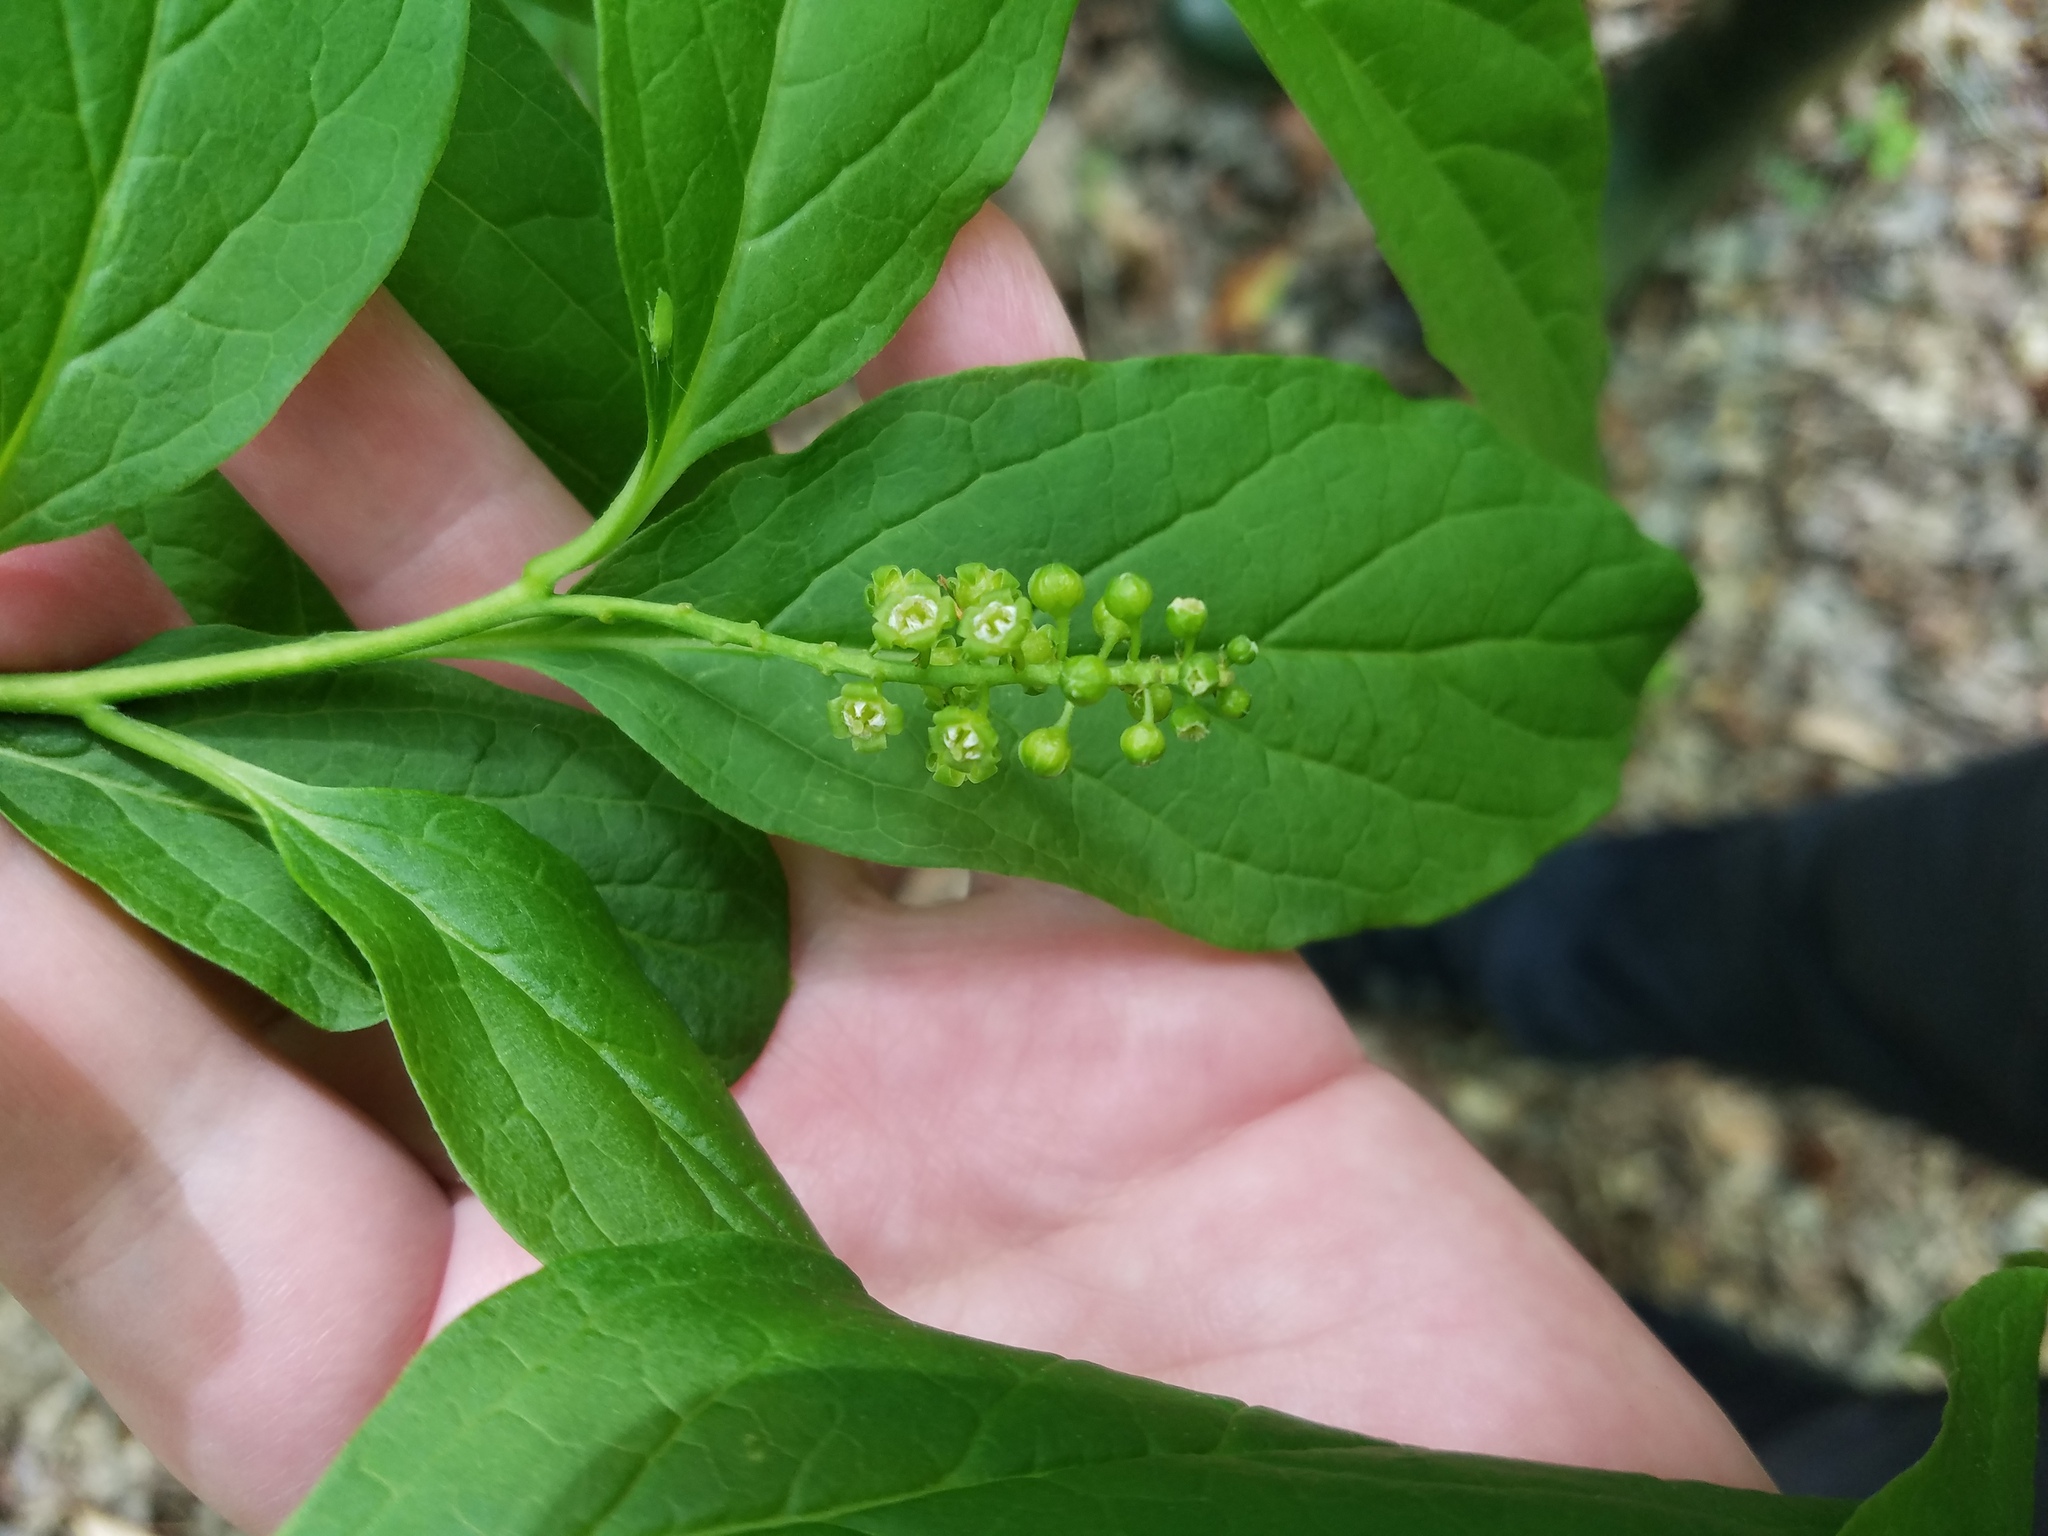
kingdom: Plantae
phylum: Tracheophyta
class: Magnoliopsida
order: Santalales
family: Cervantesiaceae
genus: Pyrularia
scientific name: Pyrularia pubera
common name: Oilnut
